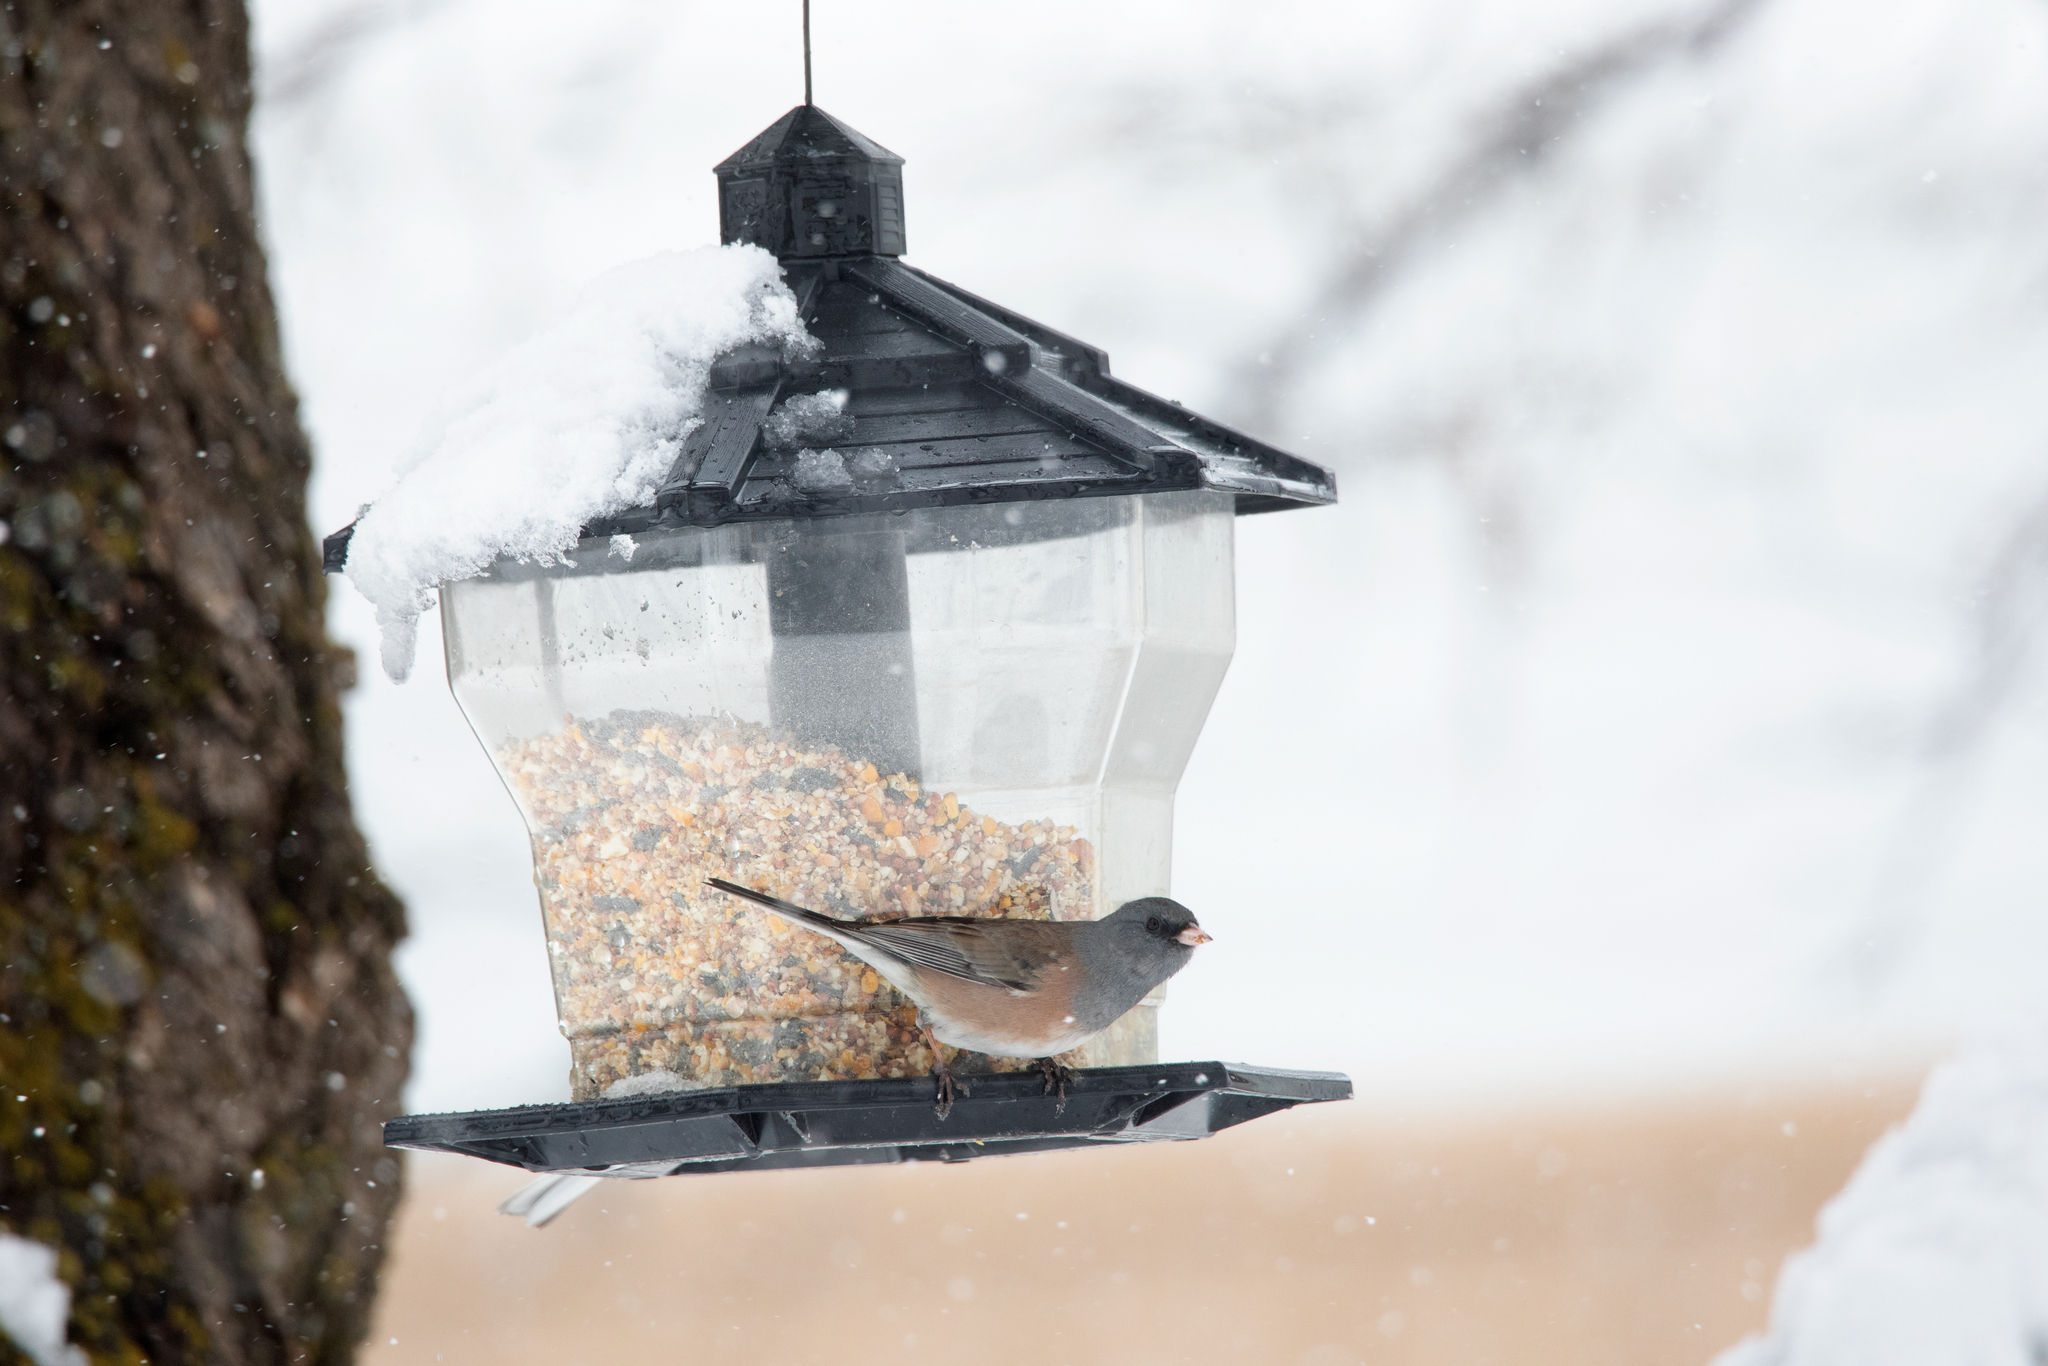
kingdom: Animalia
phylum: Chordata
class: Aves
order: Passeriformes
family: Passerellidae
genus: Junco
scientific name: Junco hyemalis
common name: Dark-eyed junco
